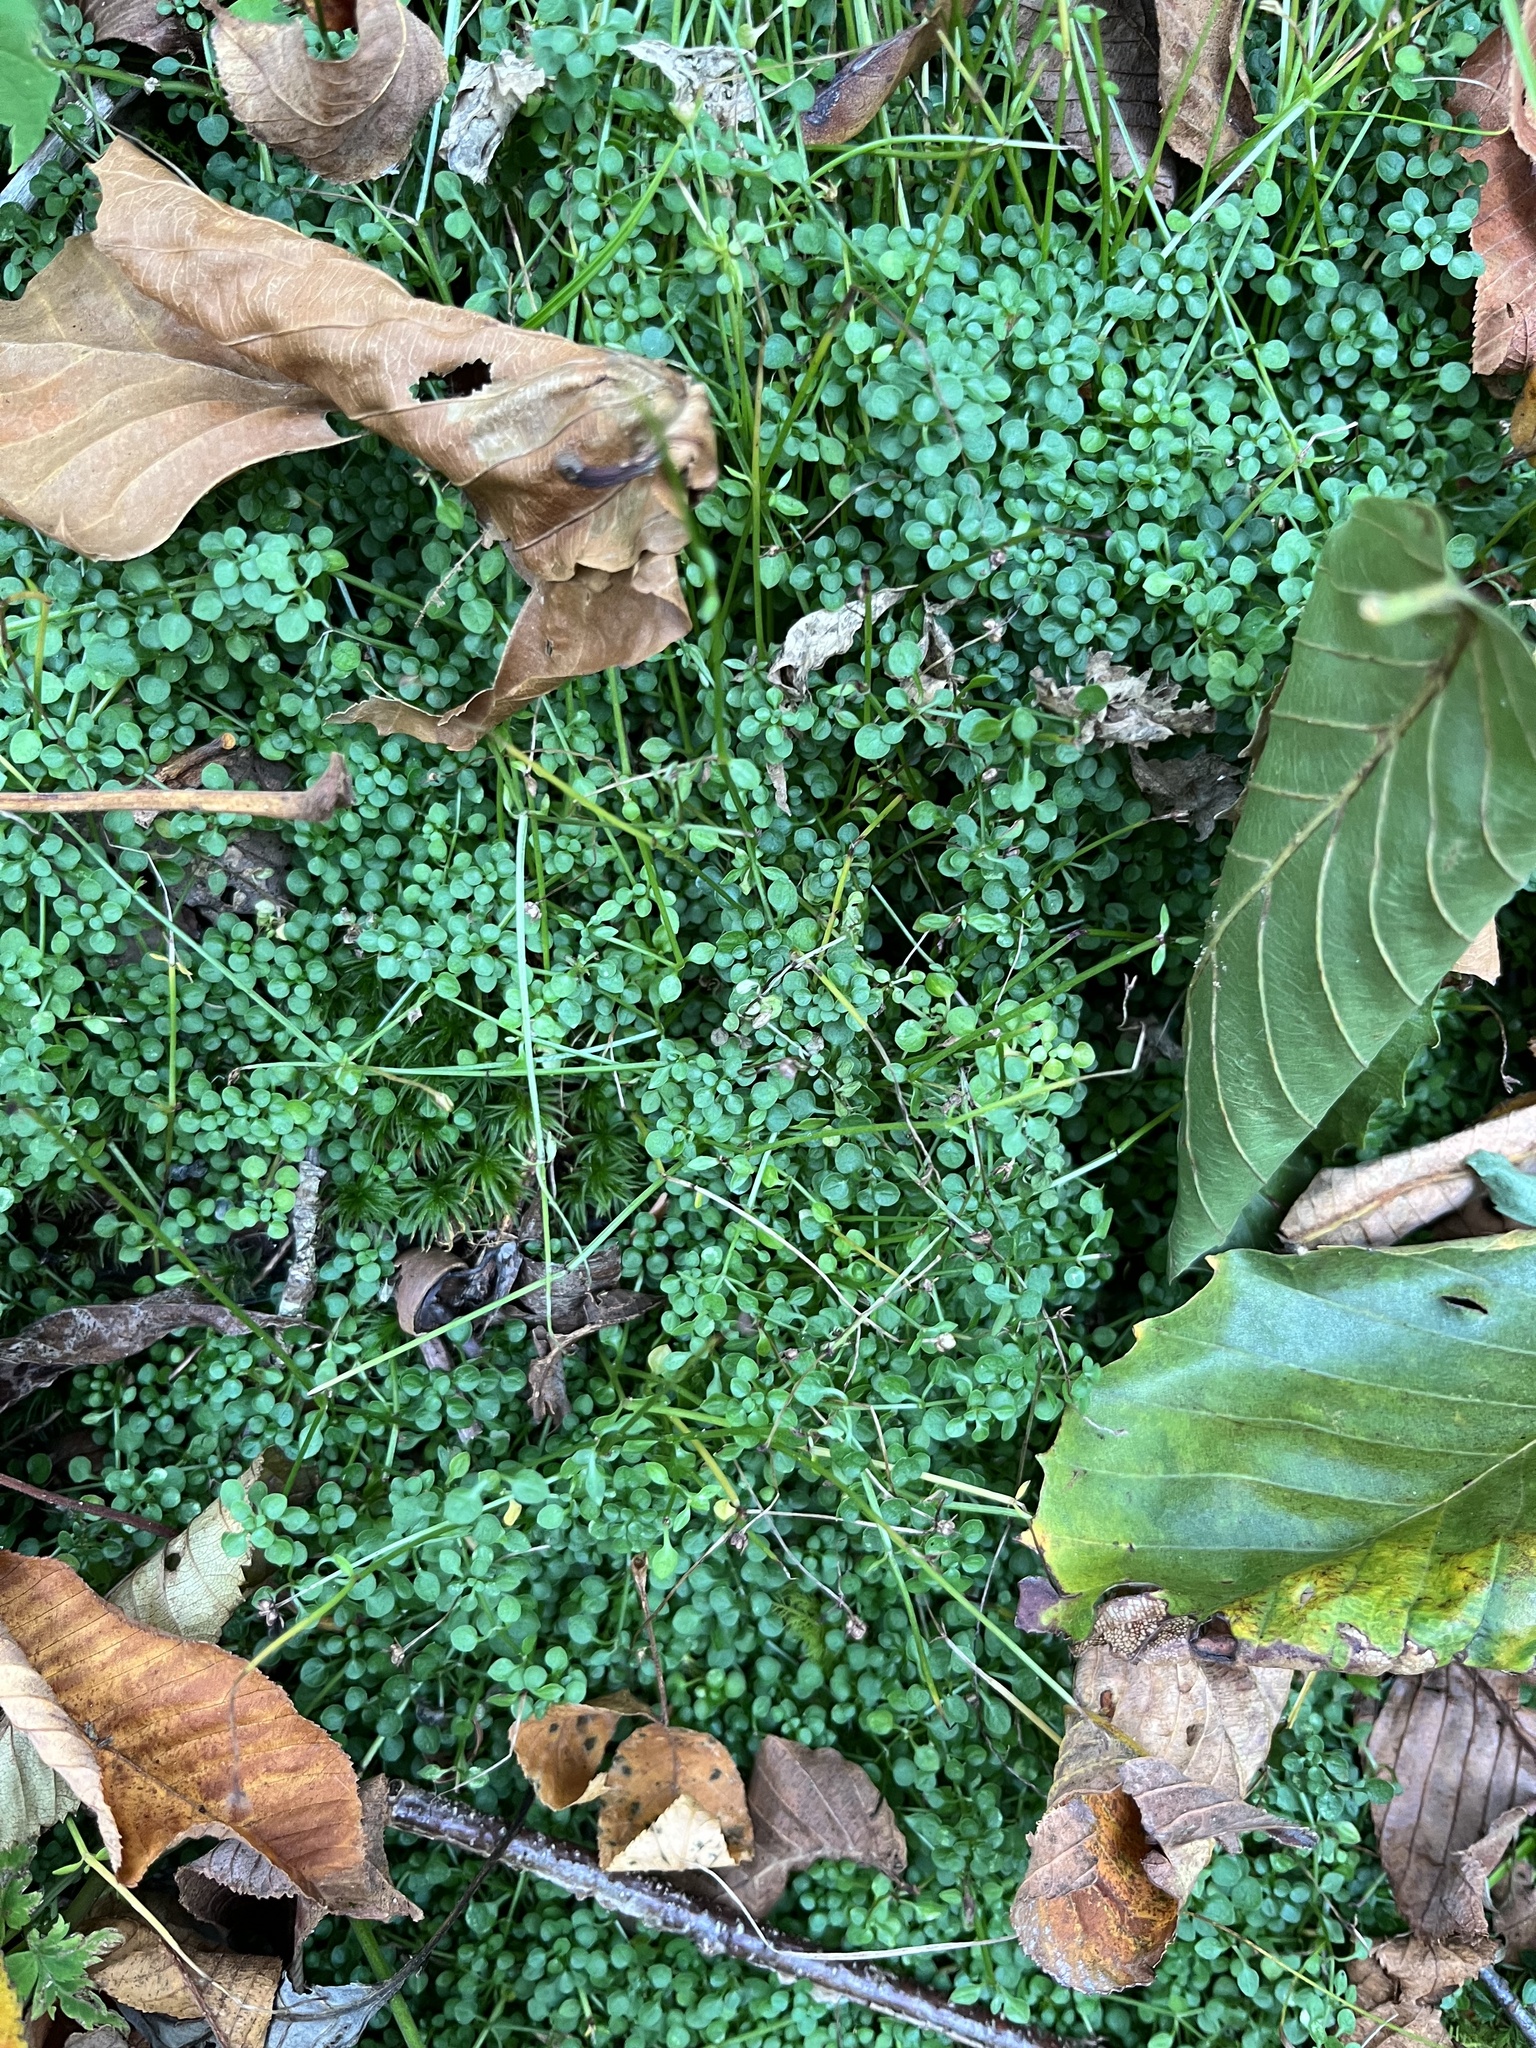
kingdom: Plantae
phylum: Tracheophyta
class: Magnoliopsida
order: Gentianales
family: Rubiaceae
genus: Houstonia
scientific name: Houstonia serpyllifolia
